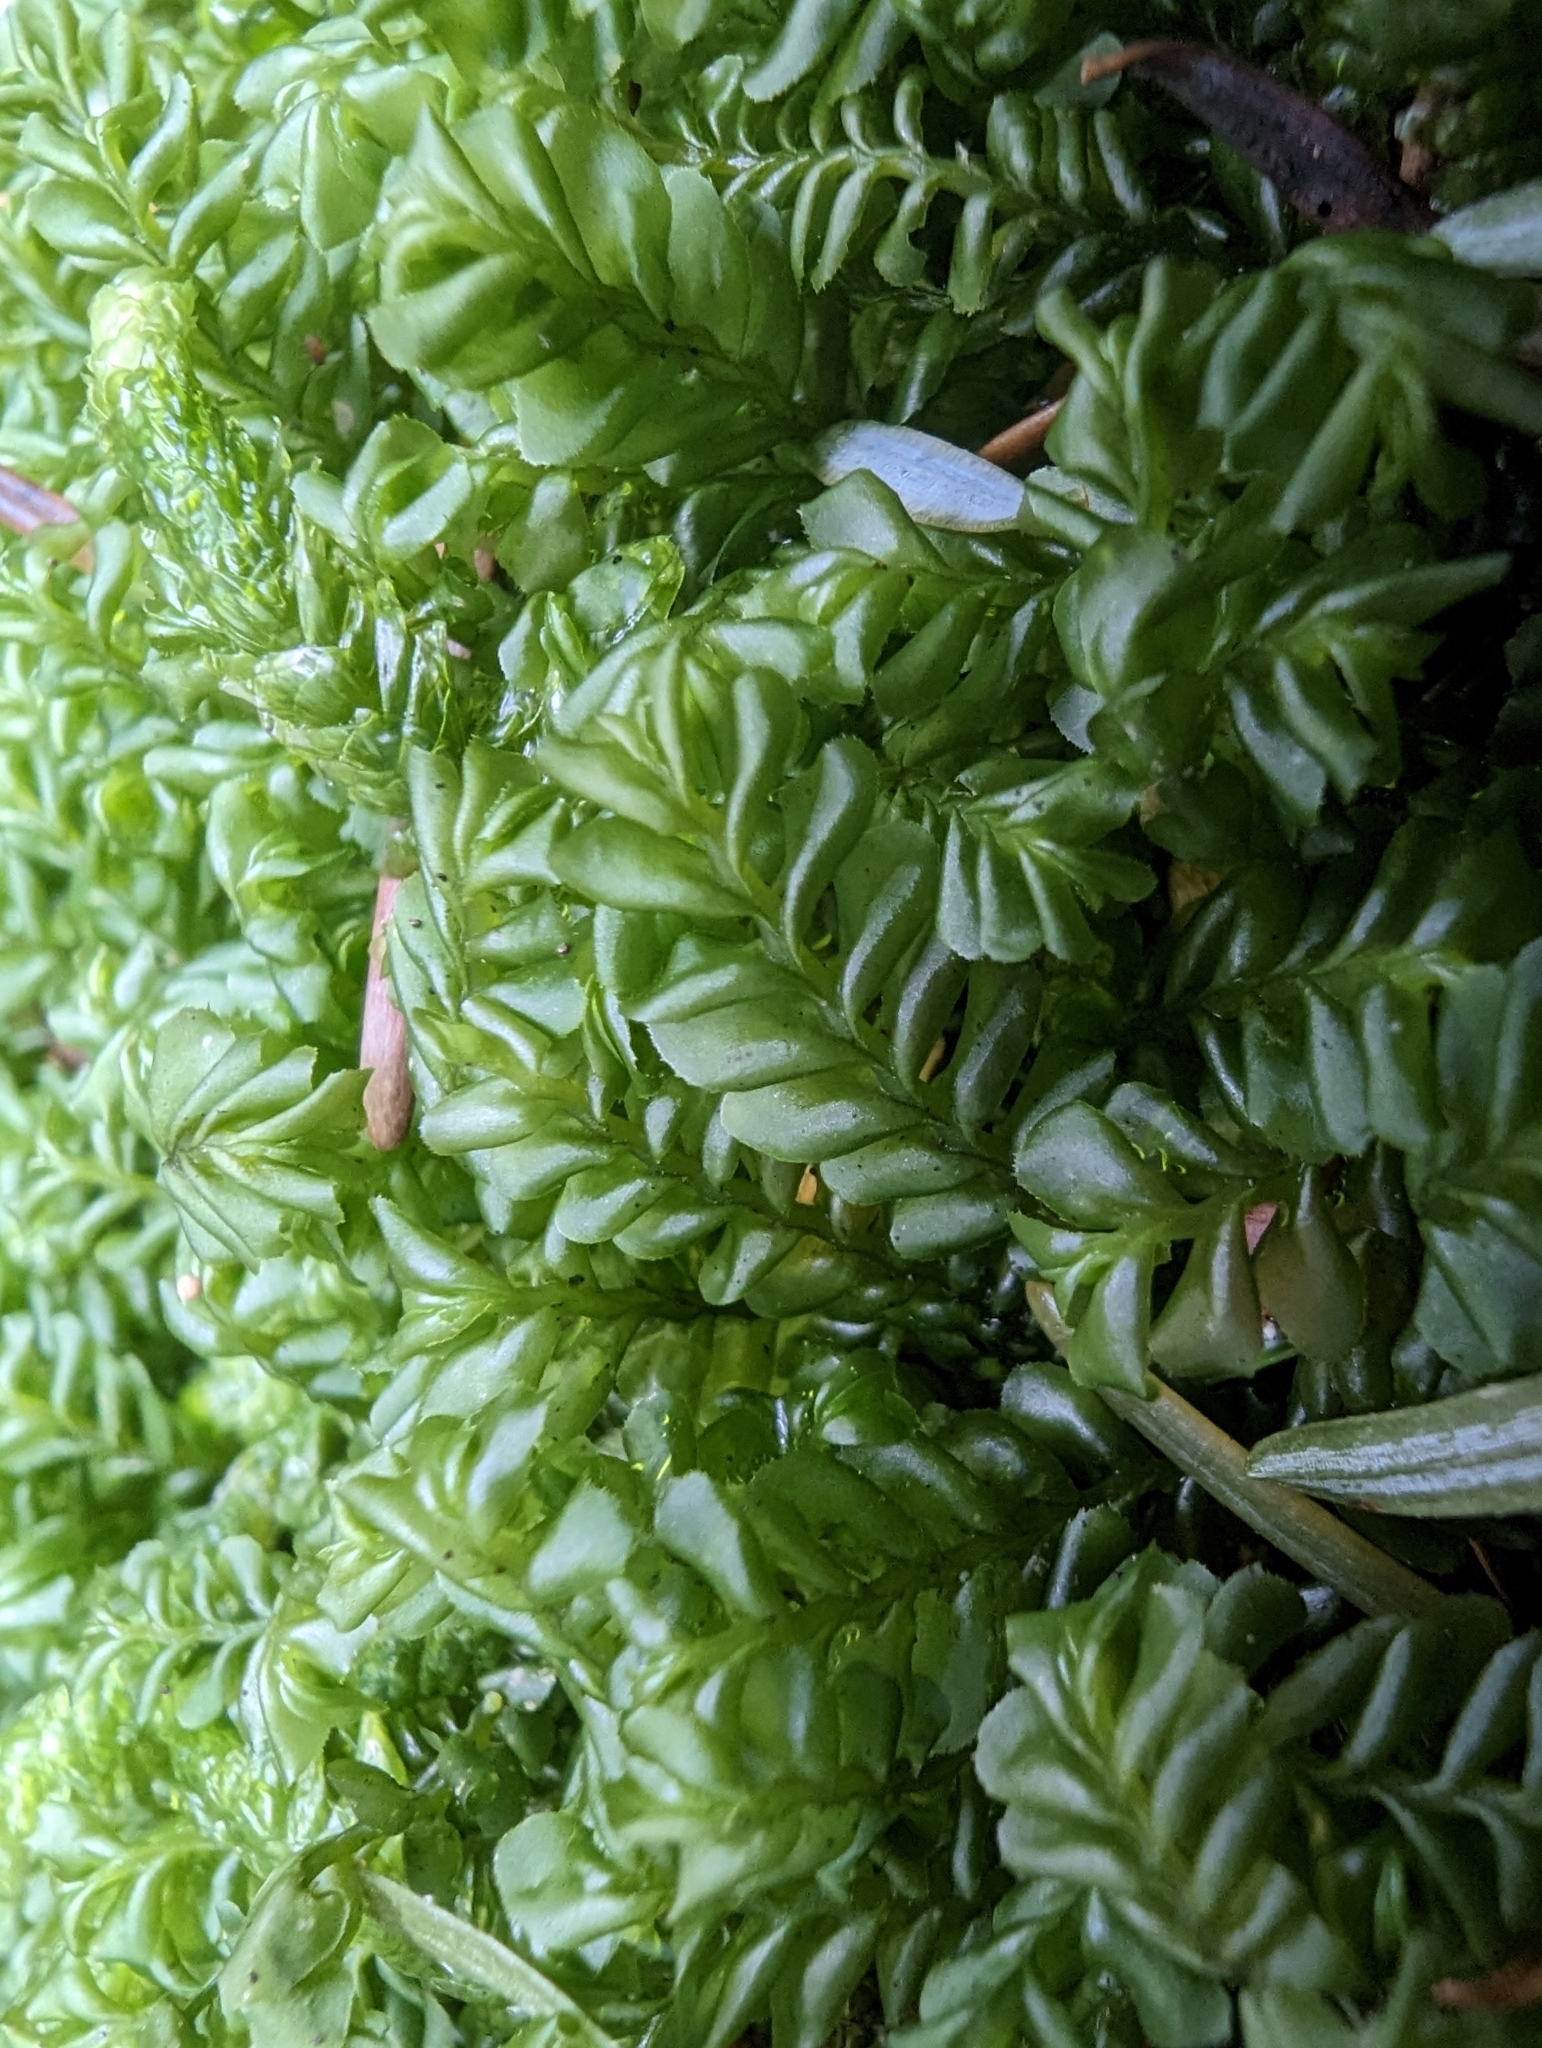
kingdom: Plantae
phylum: Marchantiophyta
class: Jungermanniopsida
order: Jungermanniales
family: Plagiochilaceae
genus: Plagiochila
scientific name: Plagiochila porelloides
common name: Lesser featherwort
